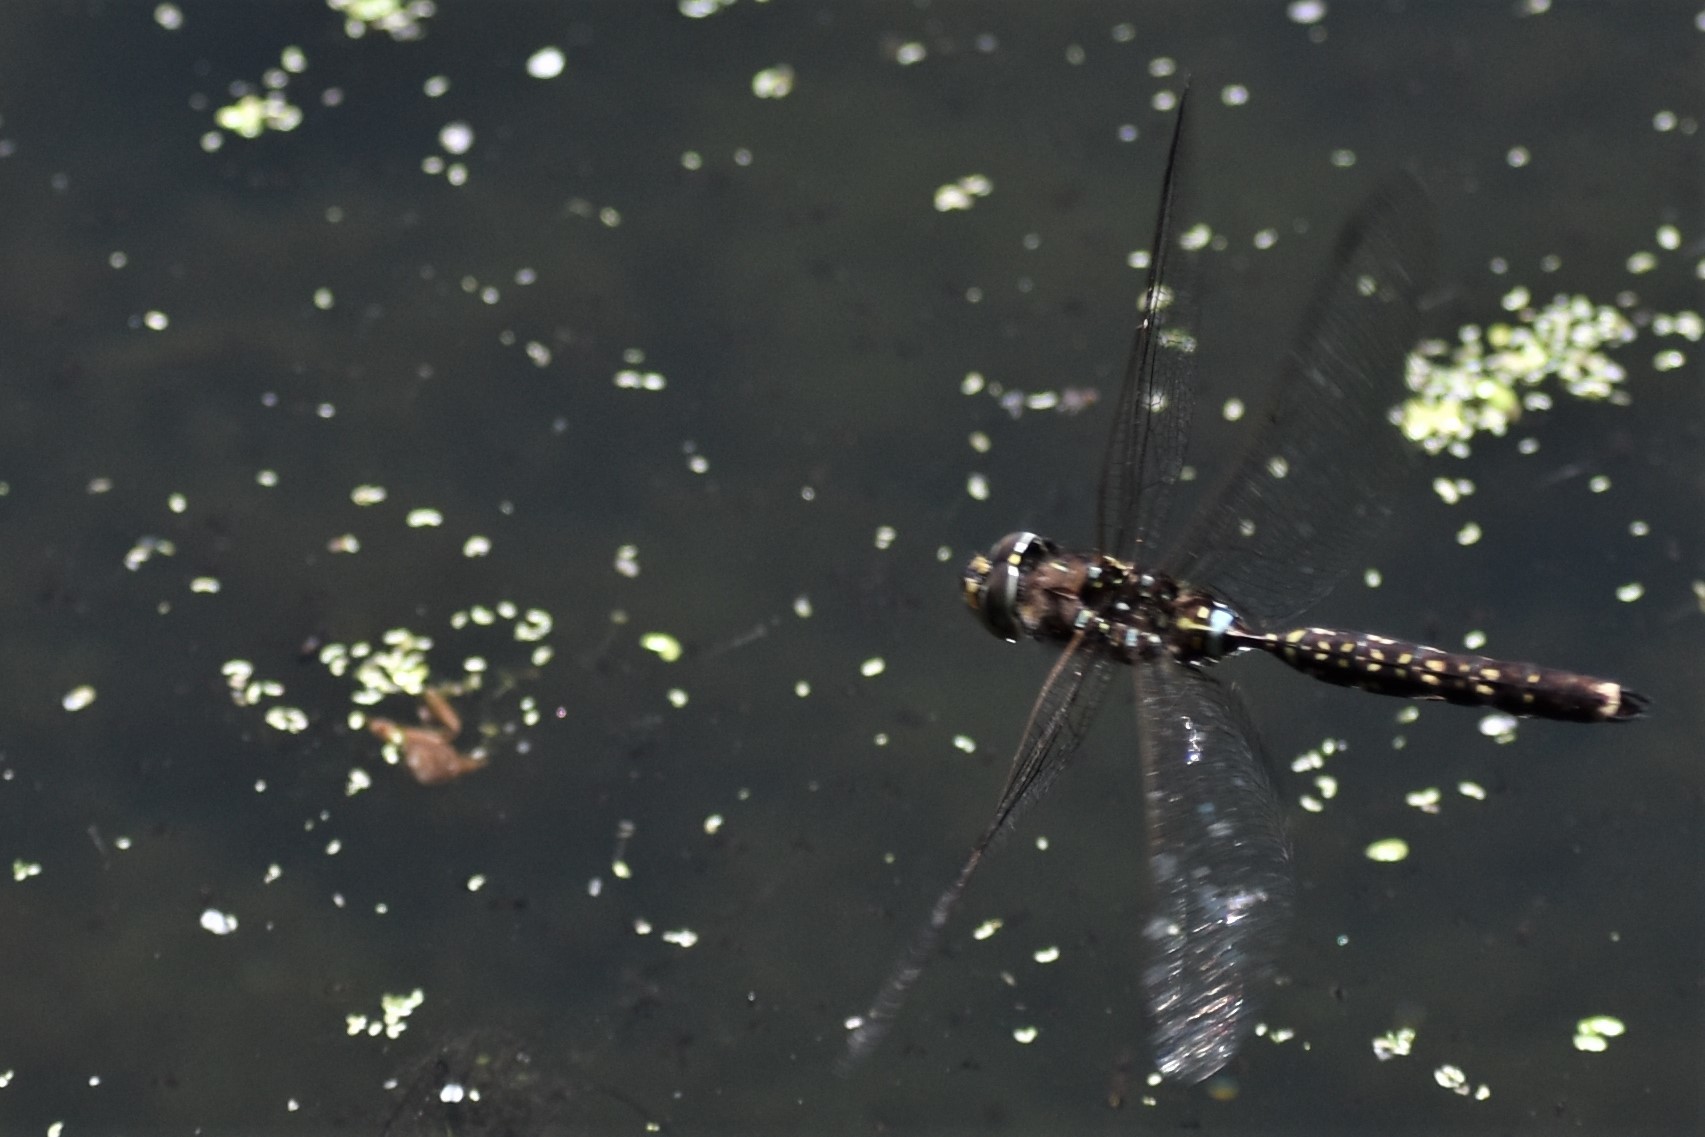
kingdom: Animalia
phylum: Arthropoda
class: Insecta
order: Odonata
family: Aeshnidae
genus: Aeshna
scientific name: Aeshna brevistyla
